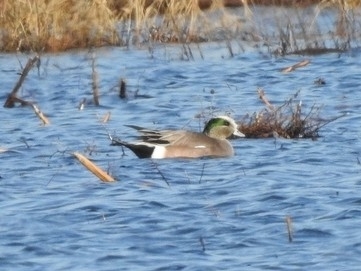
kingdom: Animalia
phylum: Chordata
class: Aves
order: Anseriformes
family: Anatidae
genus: Mareca
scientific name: Mareca americana
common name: American wigeon
